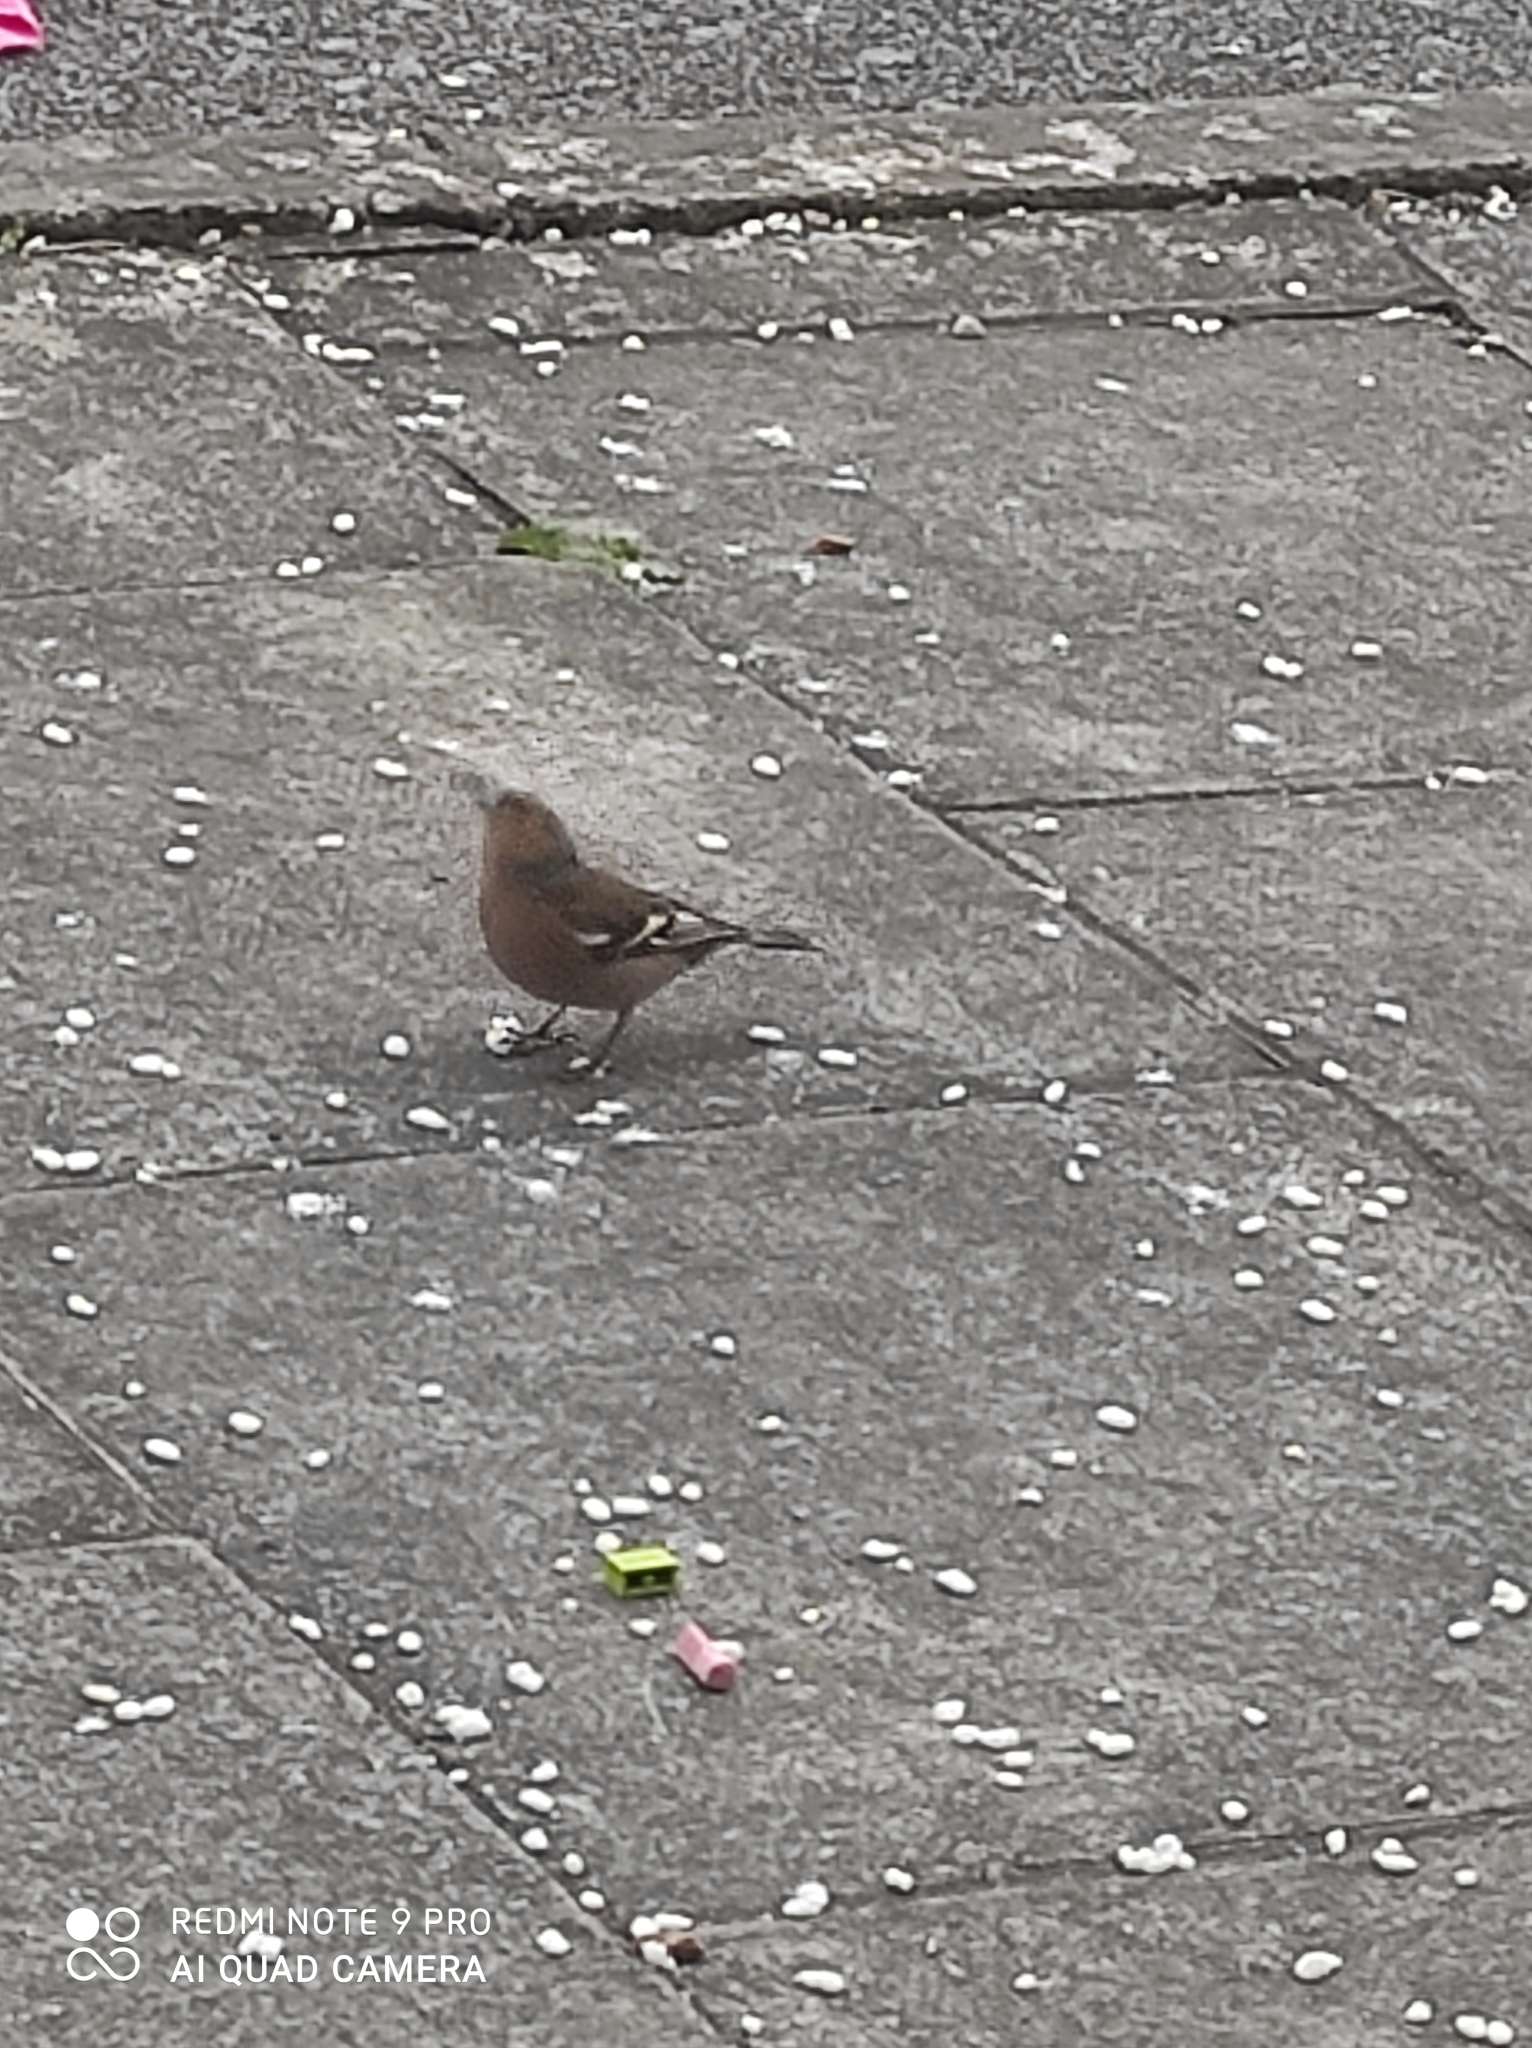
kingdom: Animalia
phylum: Chordata
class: Aves
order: Passeriformes
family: Fringillidae
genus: Fringilla
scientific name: Fringilla coelebs
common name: Common chaffinch
